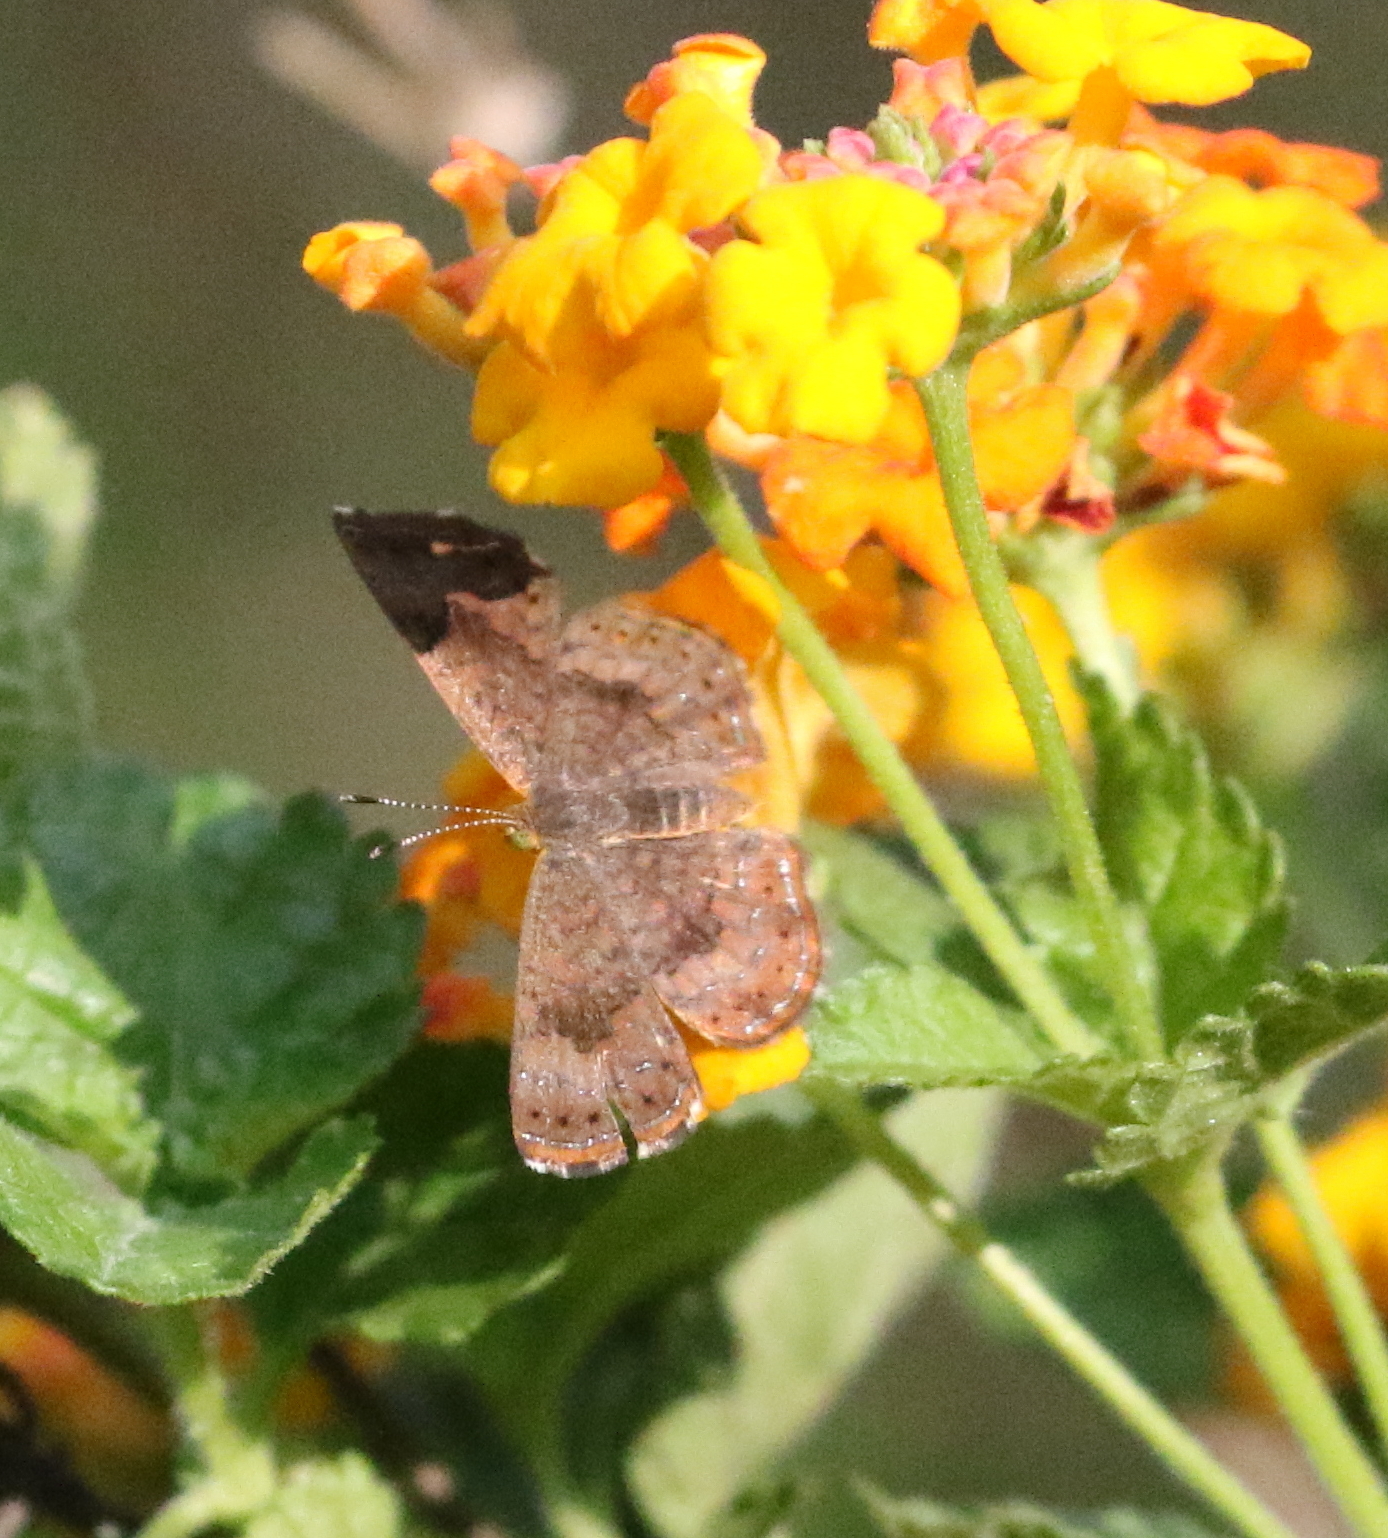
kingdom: Animalia
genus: Calephelis
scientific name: Calephelis nemesis
